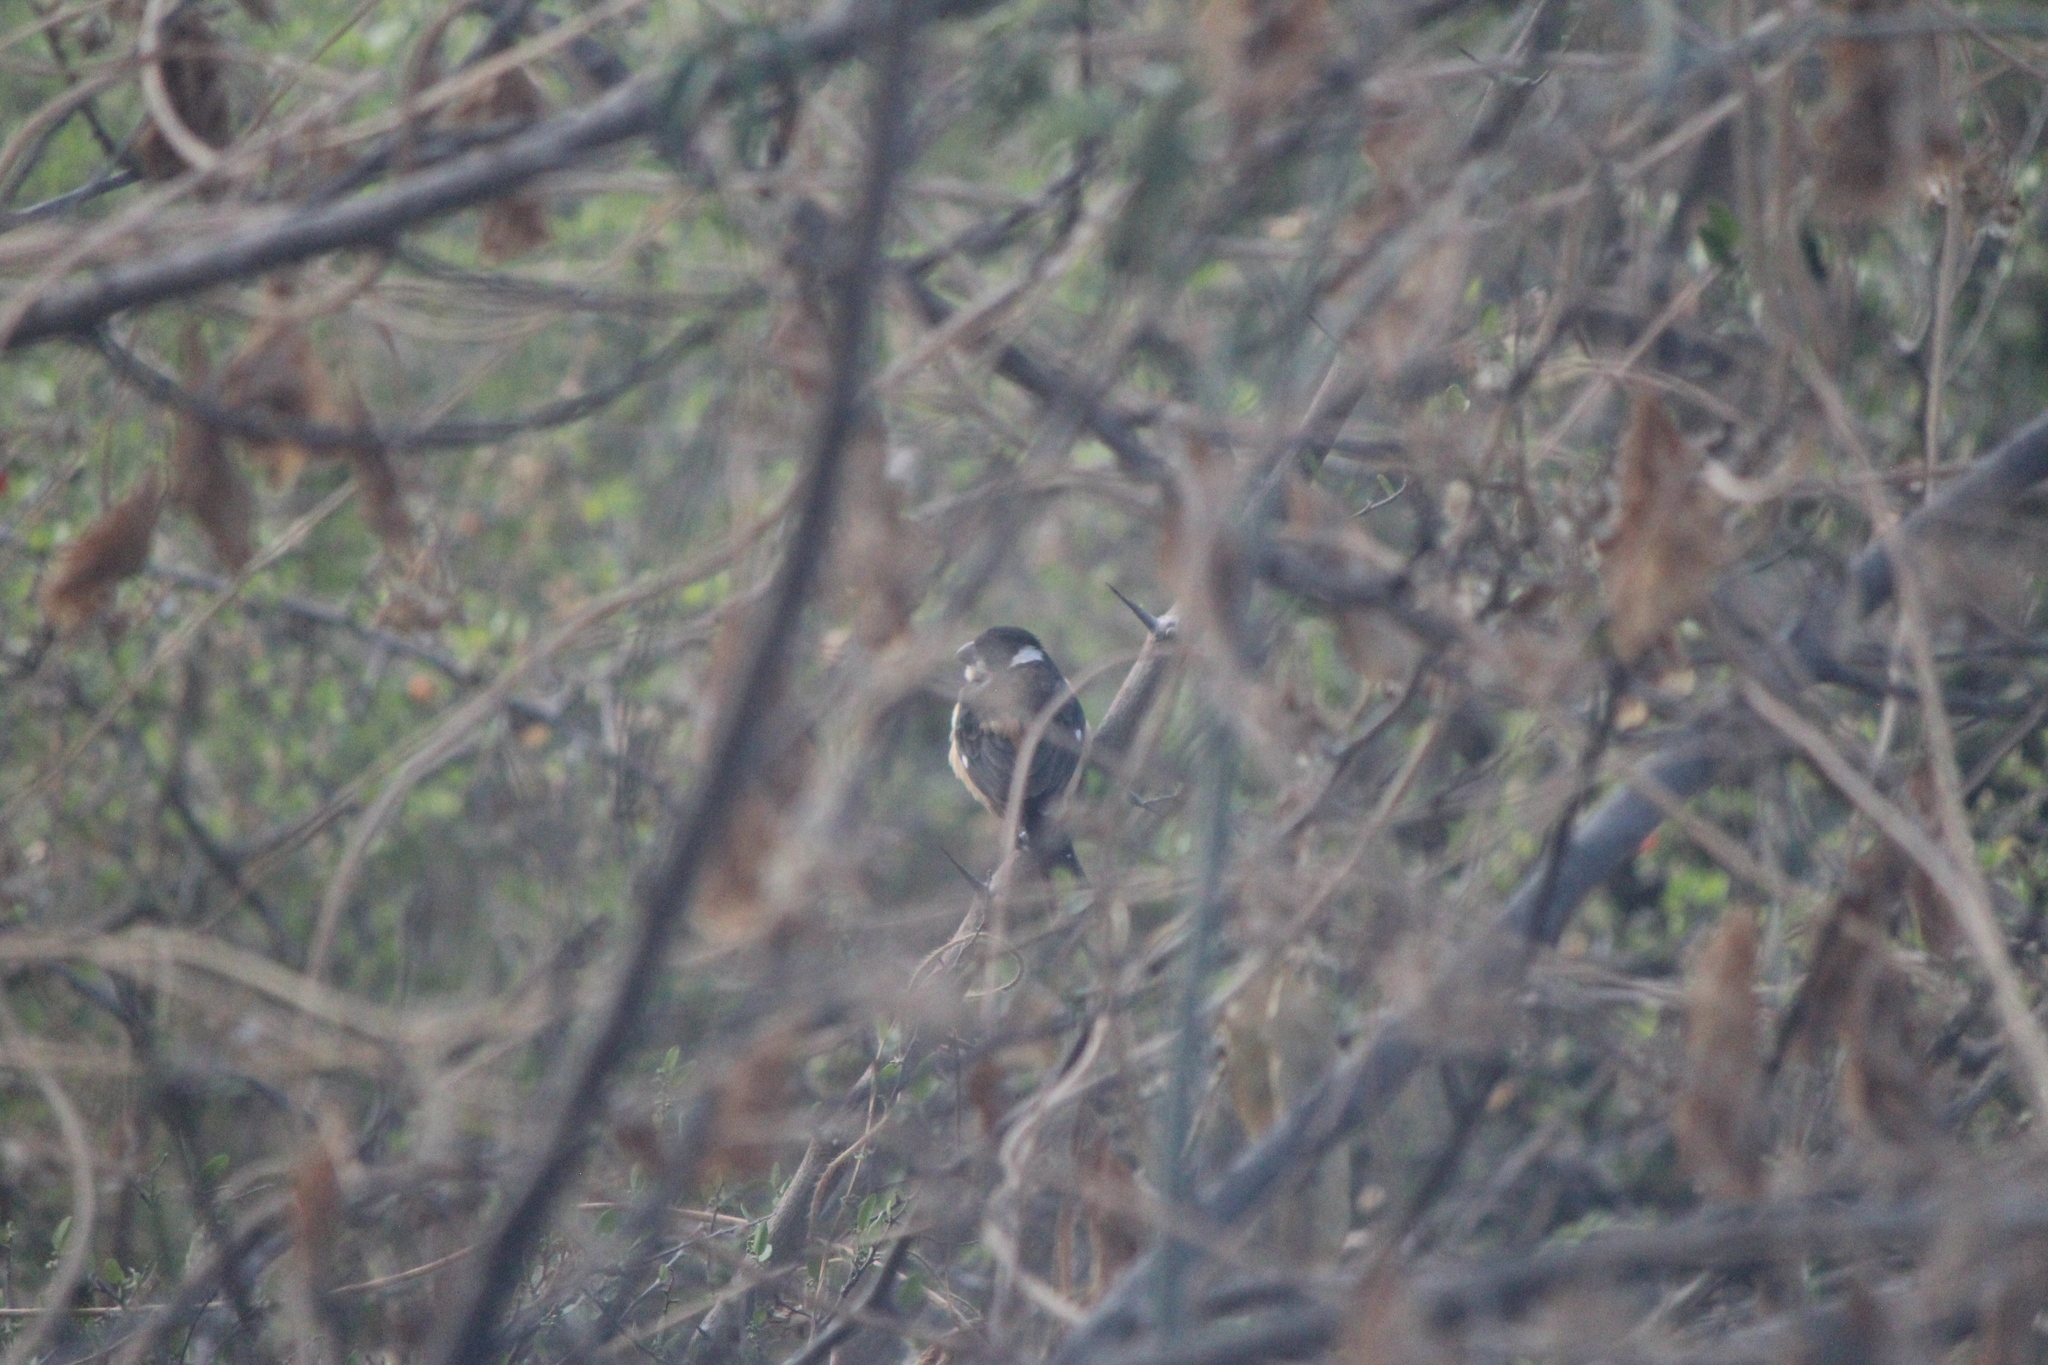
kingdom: Animalia
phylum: Chordata
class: Aves
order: Passeriformes
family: Thraupidae
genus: Sporophila
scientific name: Sporophila torqueola
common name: White-collared seedeater
